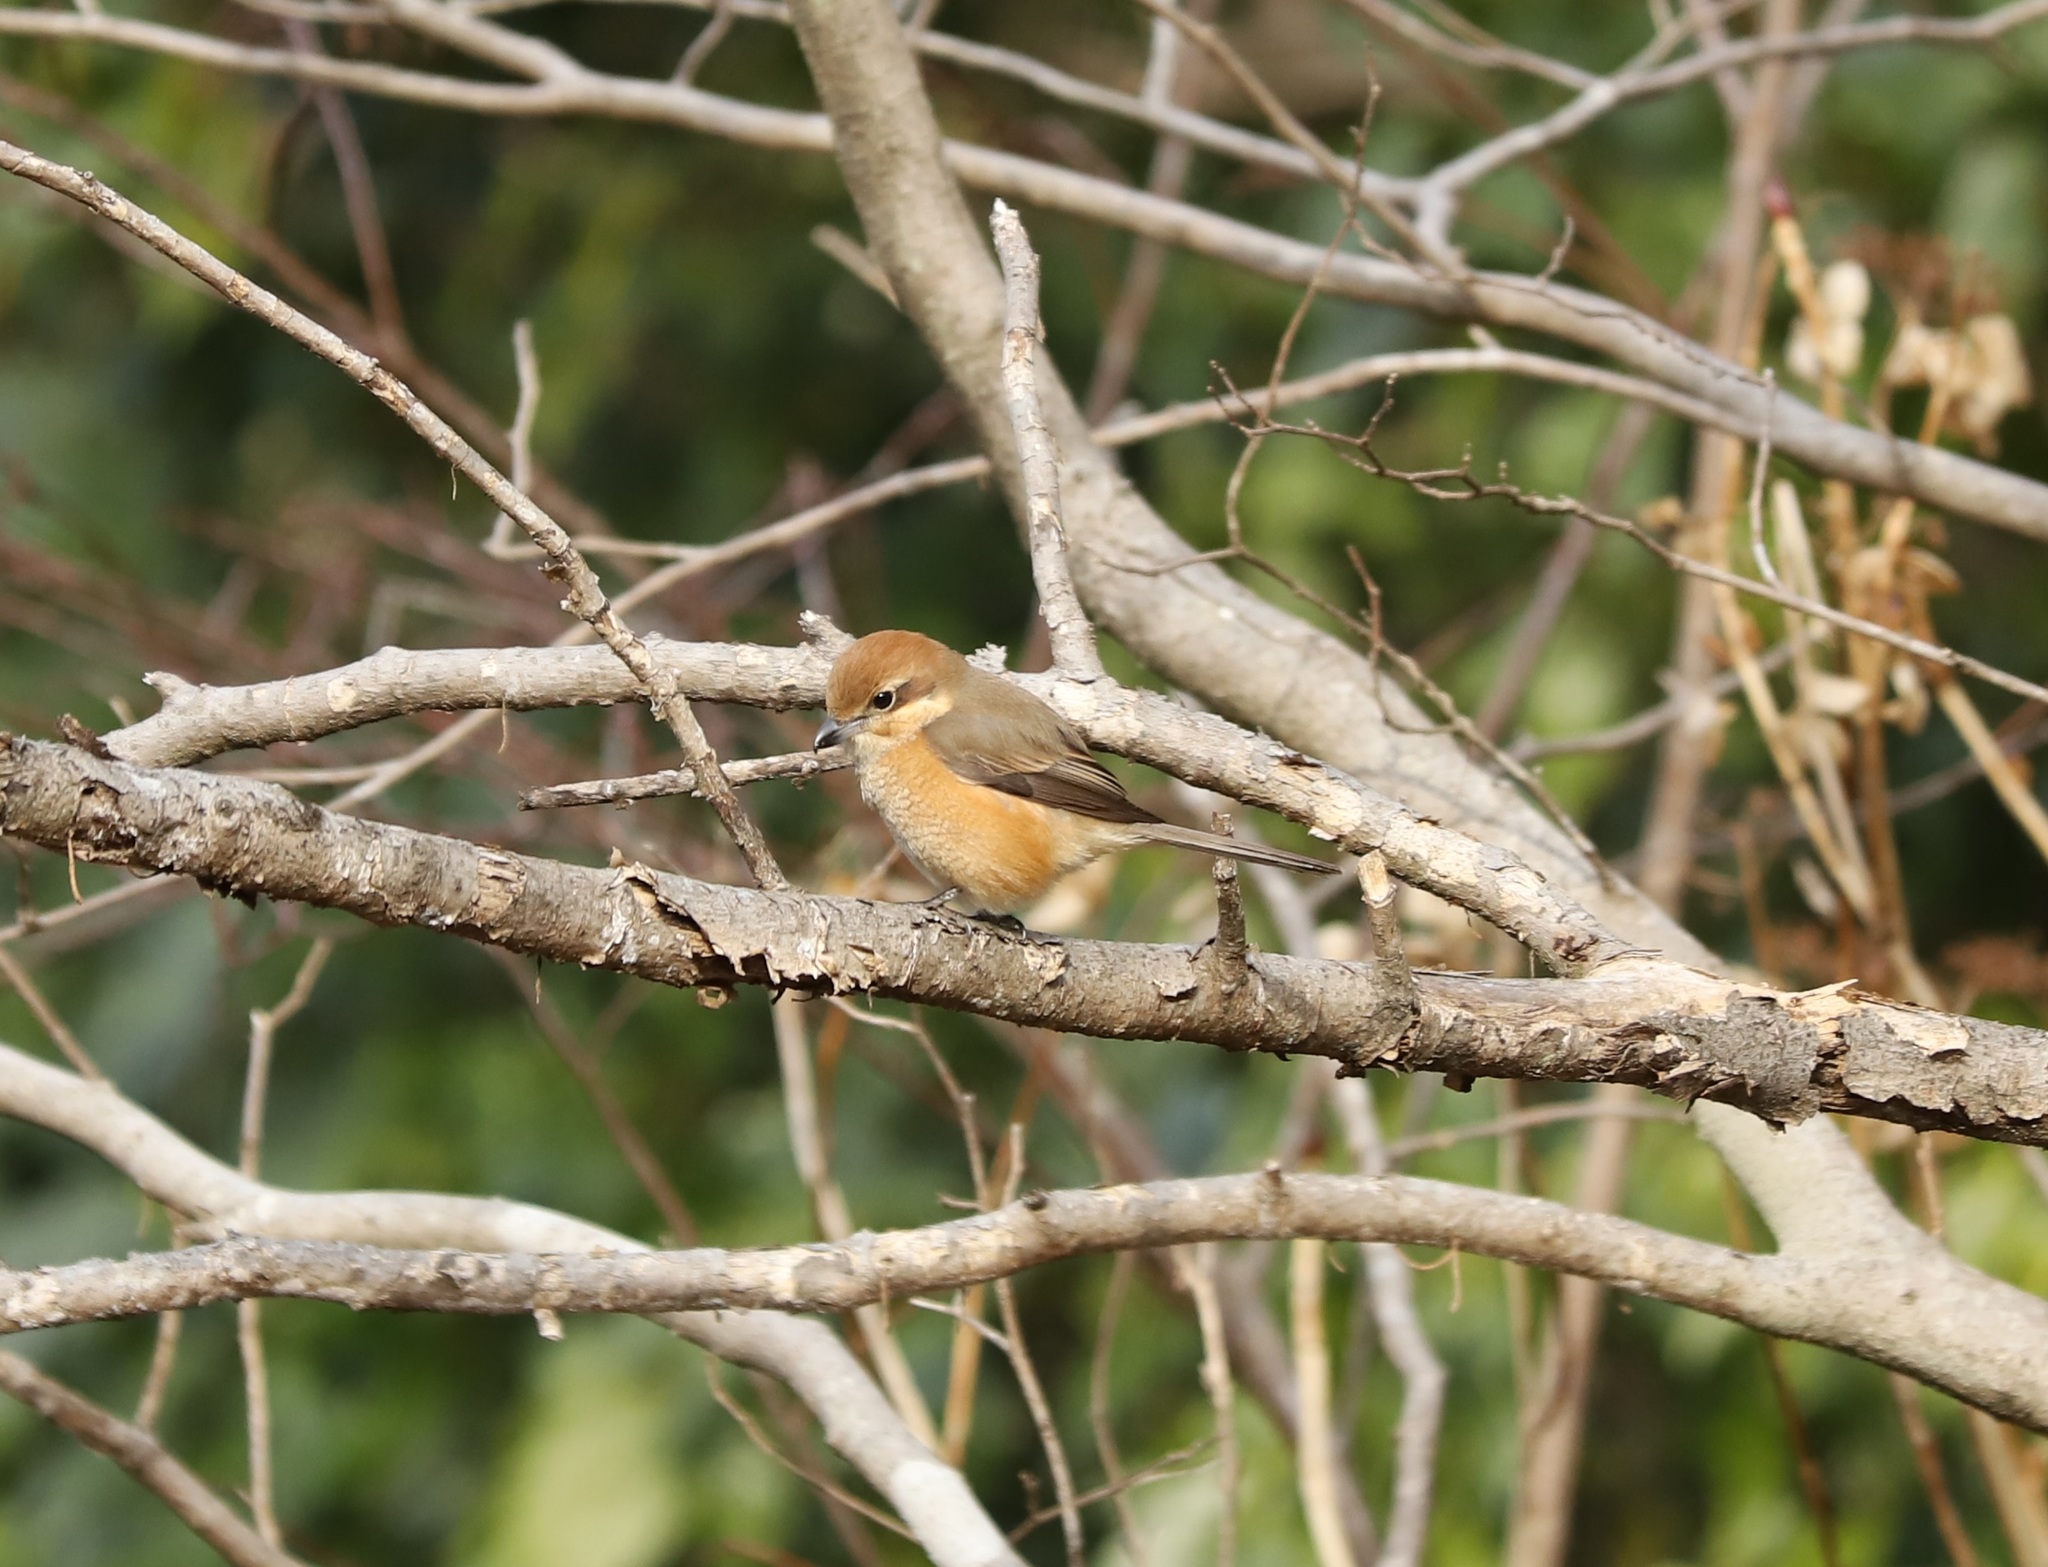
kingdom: Animalia
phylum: Chordata
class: Aves
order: Passeriformes
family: Laniidae
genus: Lanius
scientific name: Lanius bucephalus
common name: Bull-headed shrike
